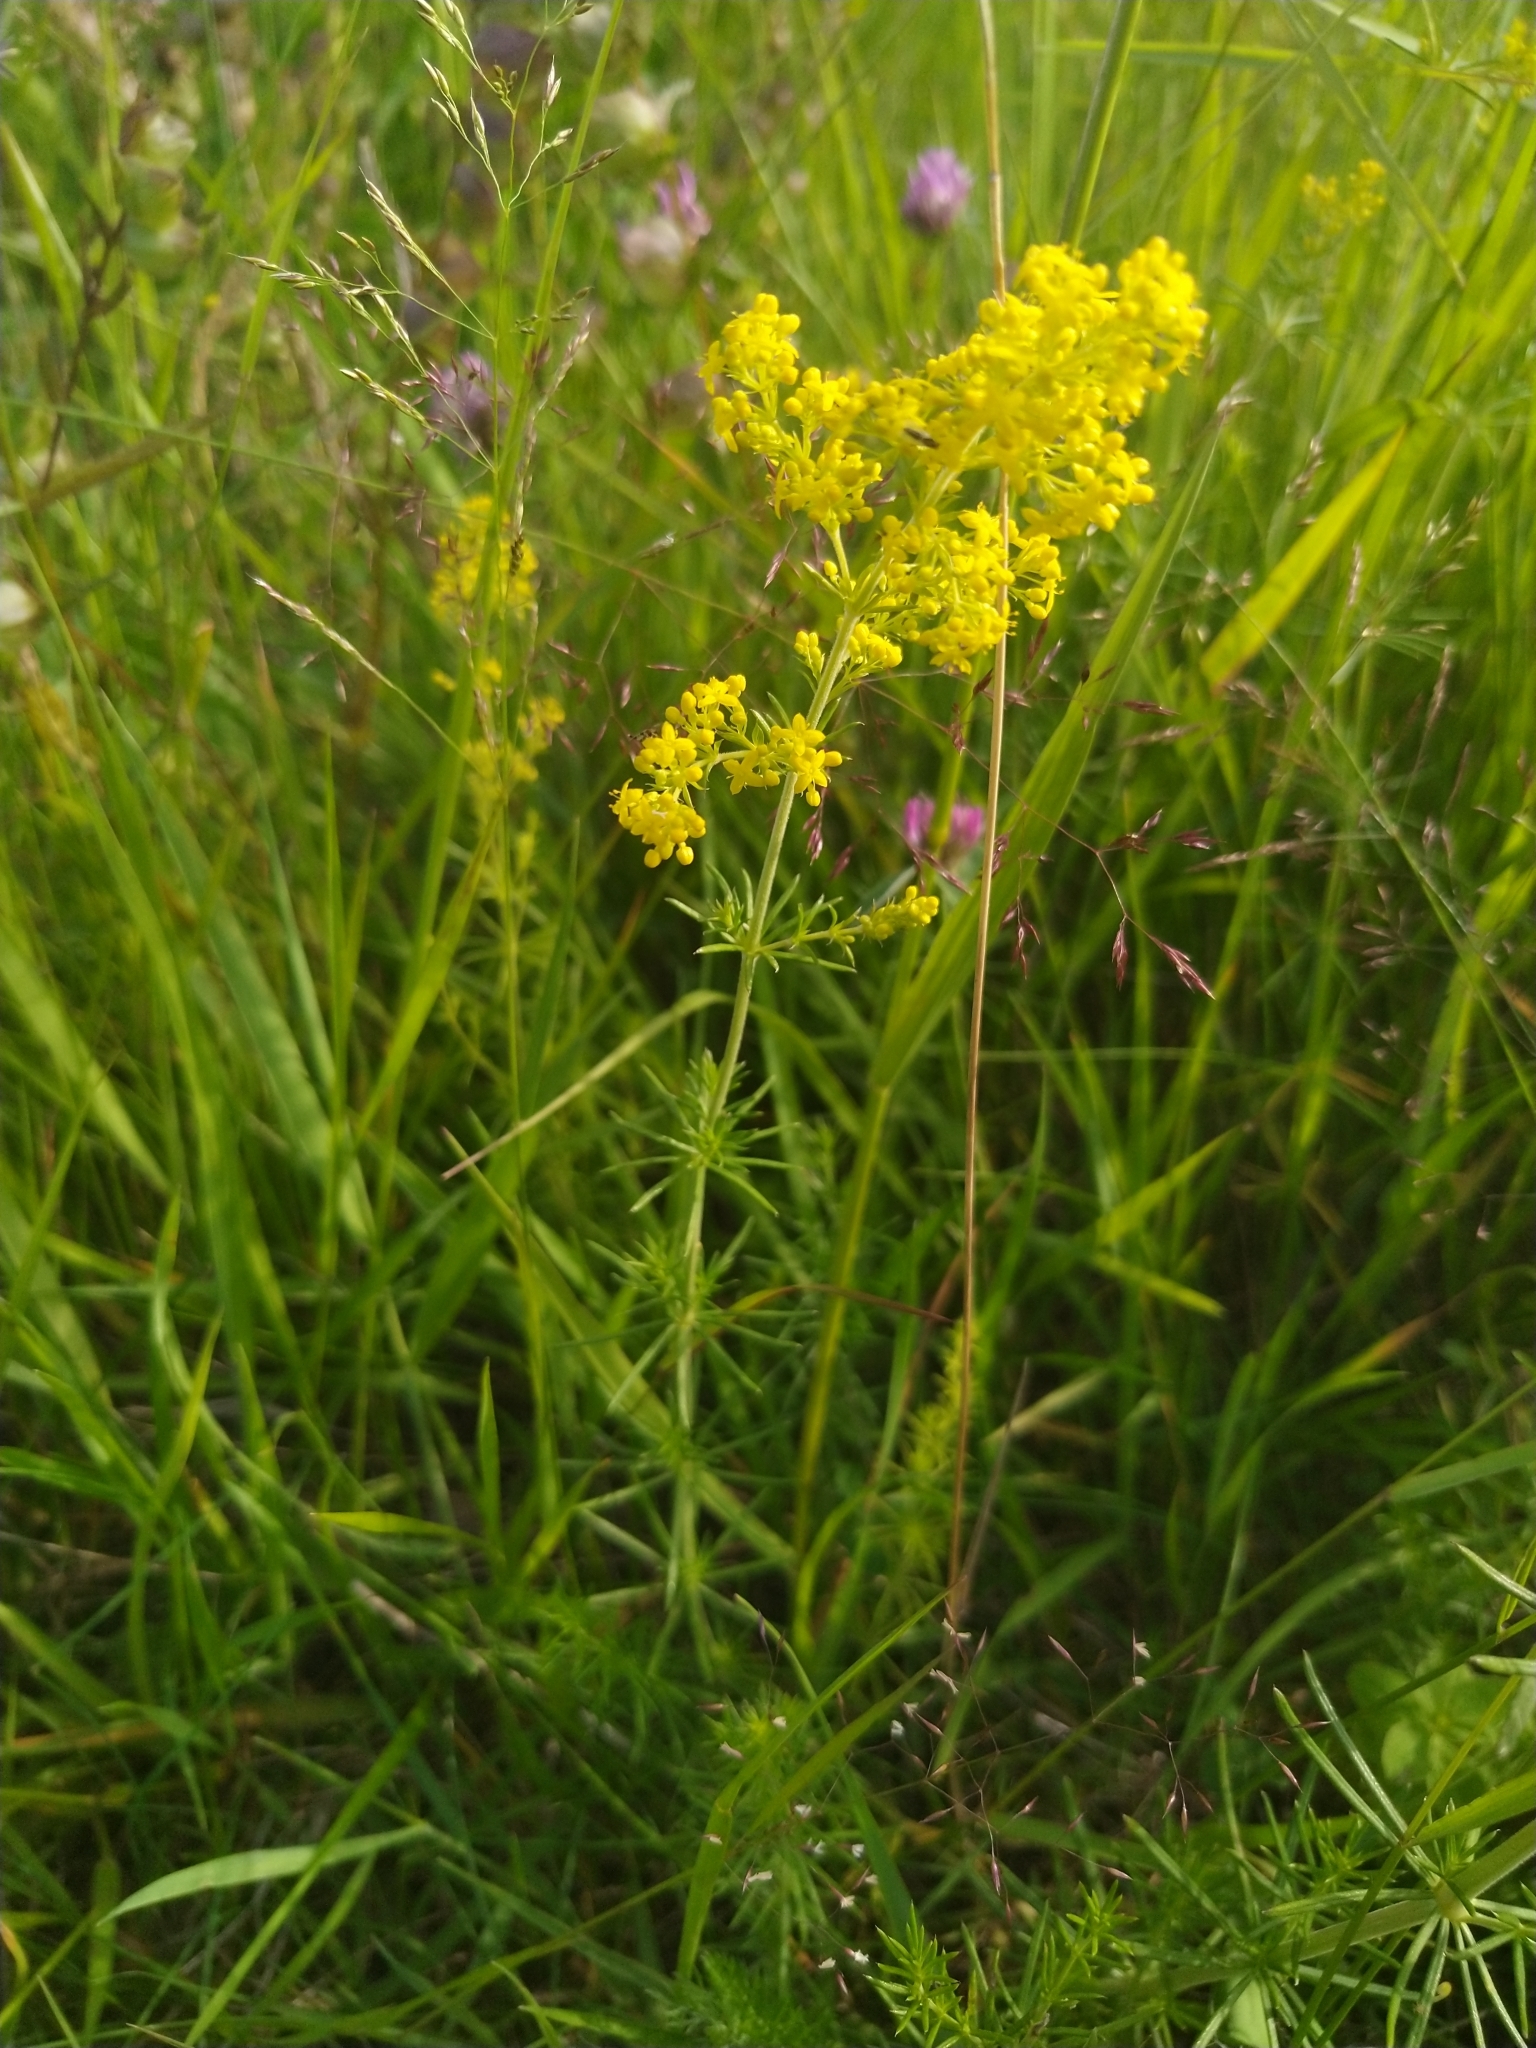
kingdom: Plantae
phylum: Tracheophyta
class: Magnoliopsida
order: Gentianales
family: Rubiaceae
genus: Galium
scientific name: Galium verum
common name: Lady's bedstraw
